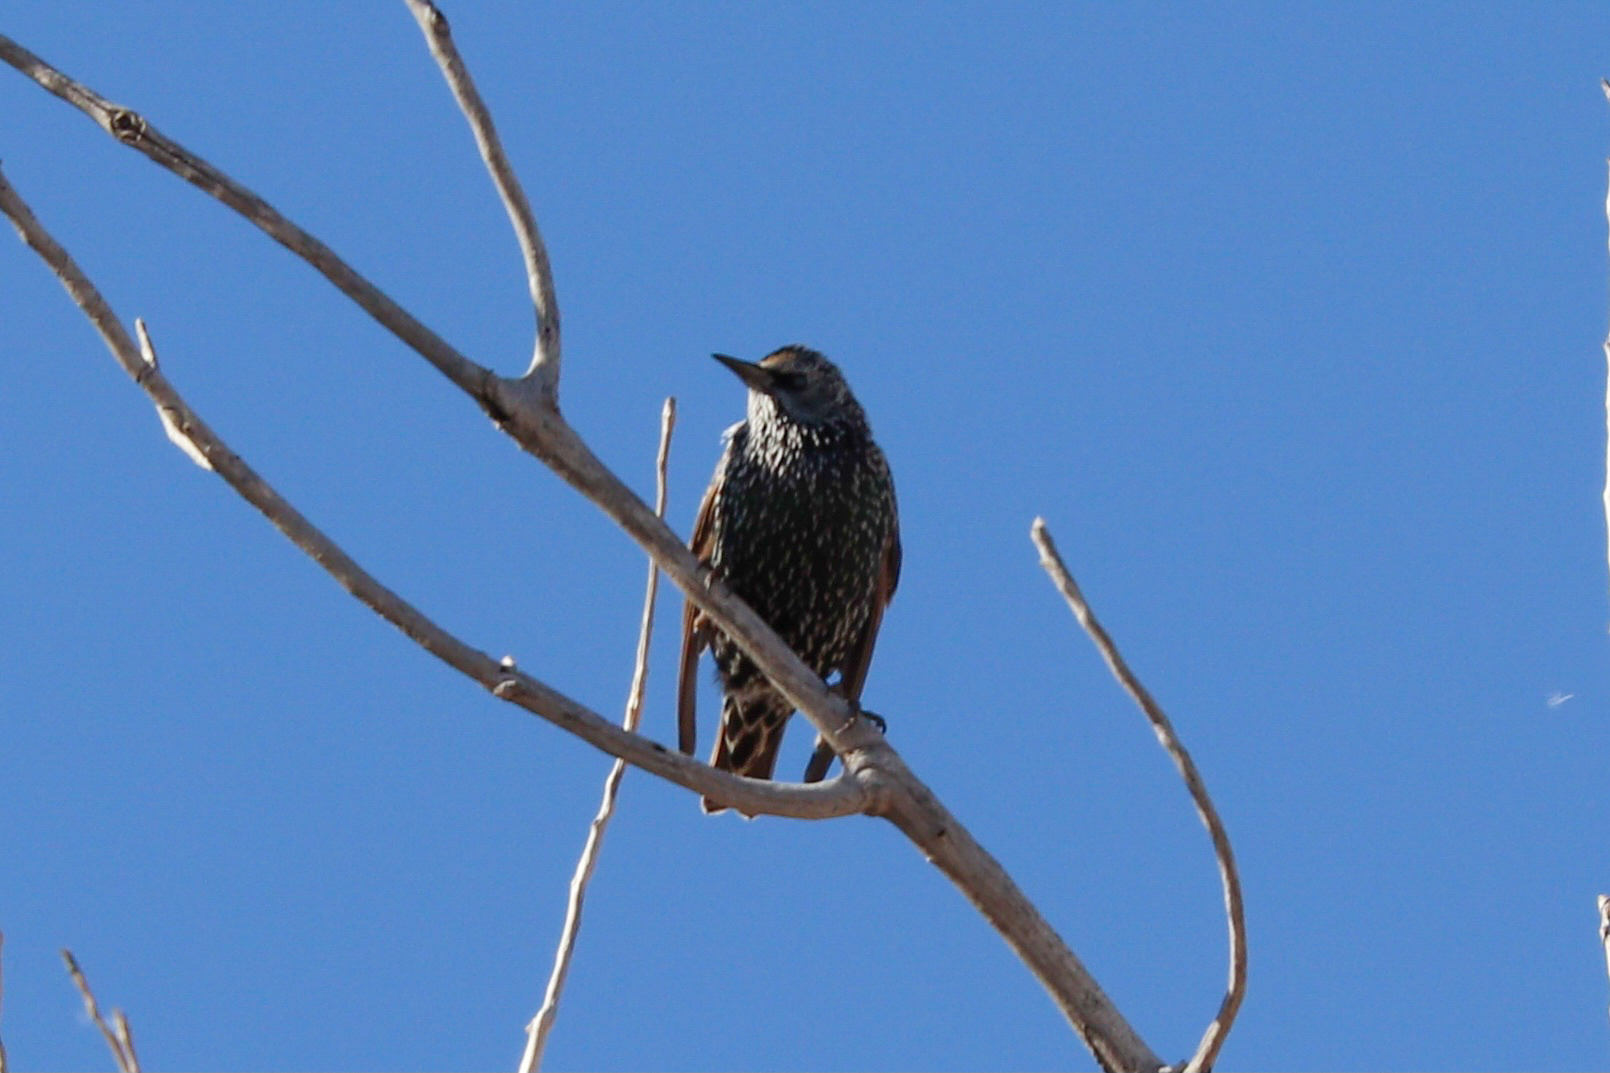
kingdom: Animalia
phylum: Chordata
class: Aves
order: Passeriformes
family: Sturnidae
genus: Sturnus
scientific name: Sturnus vulgaris
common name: Common starling
